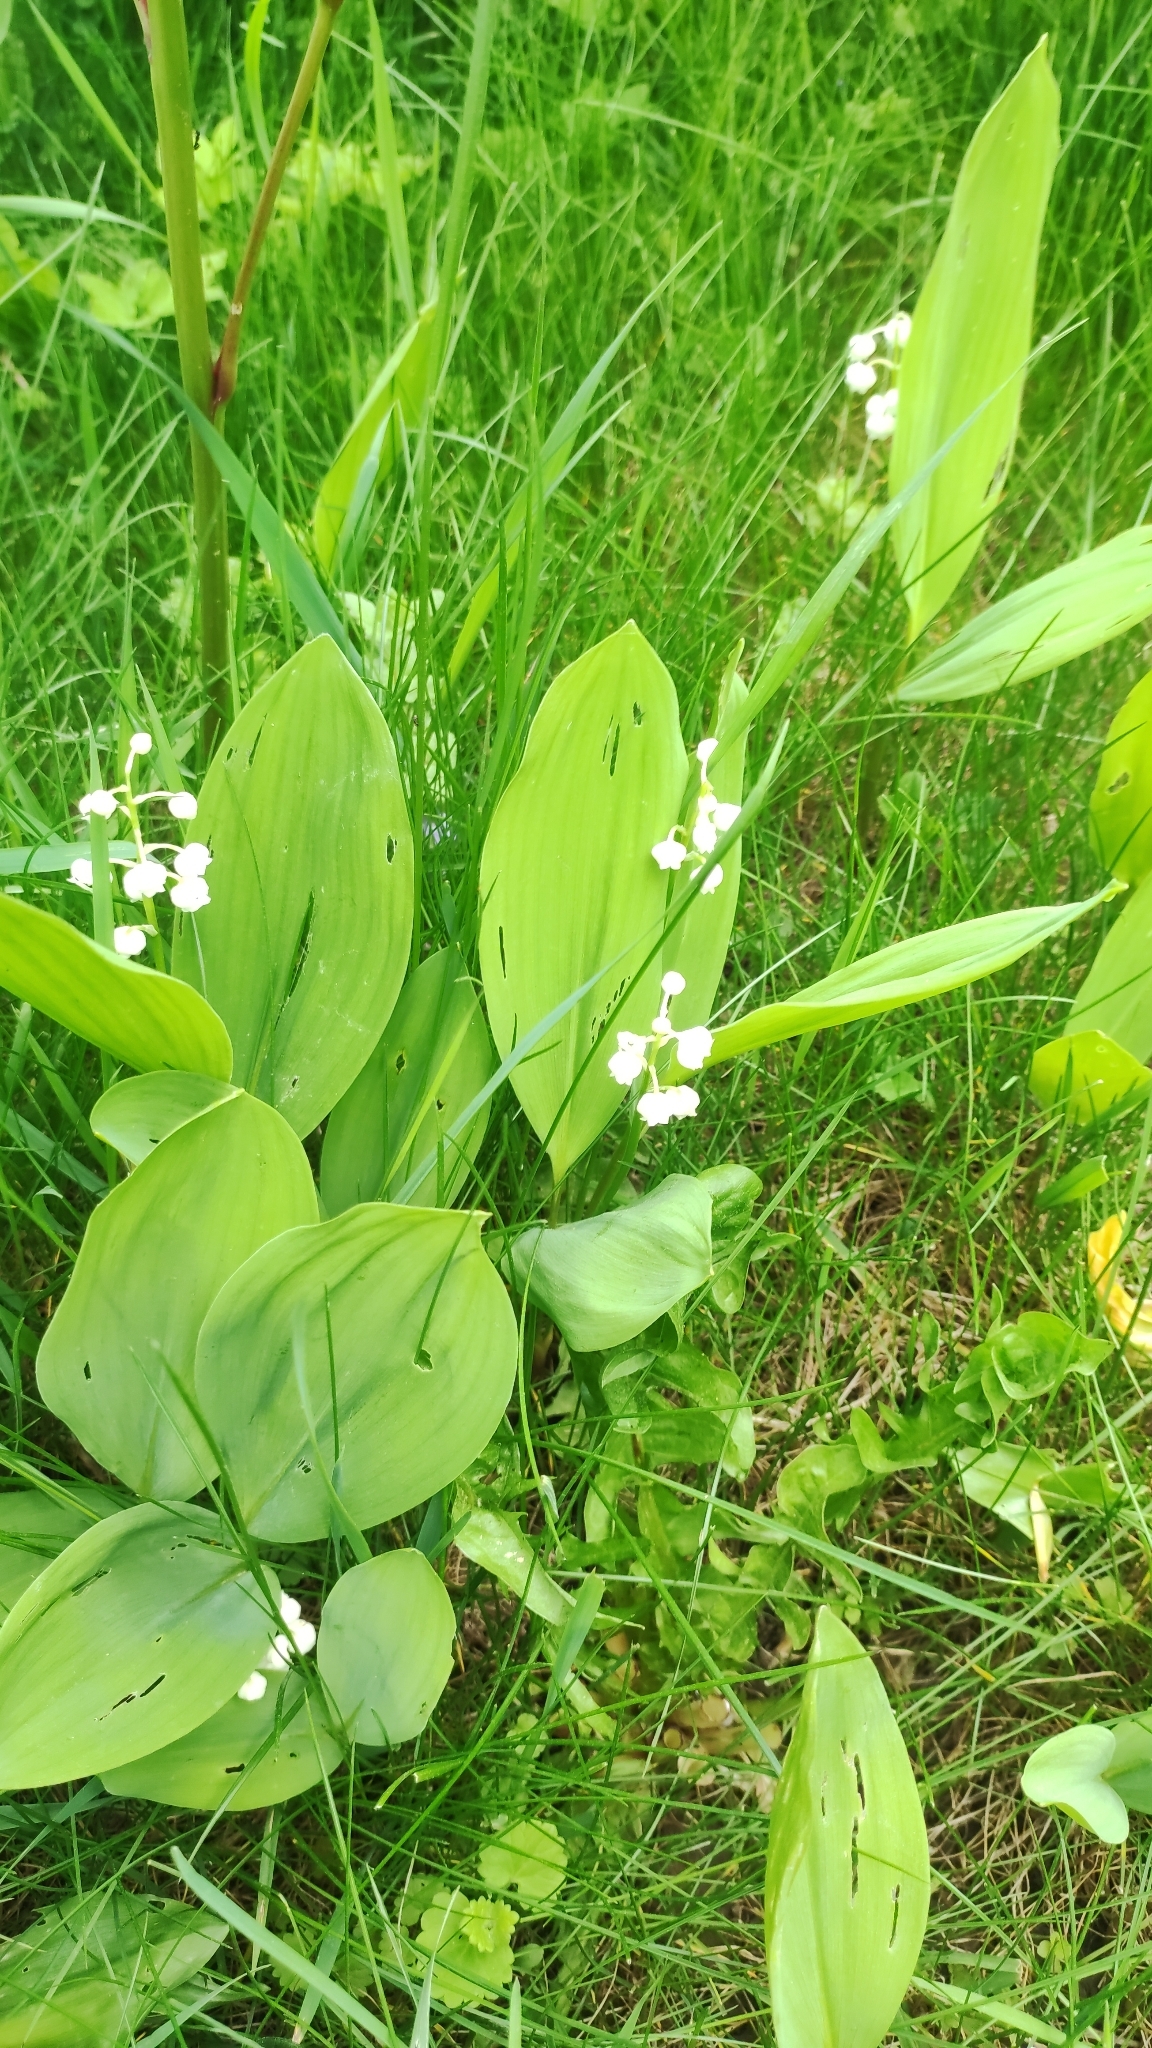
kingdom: Plantae
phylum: Tracheophyta
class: Liliopsida
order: Asparagales
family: Asparagaceae
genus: Convallaria
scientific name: Convallaria majalis
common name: Lily-of-the-valley
